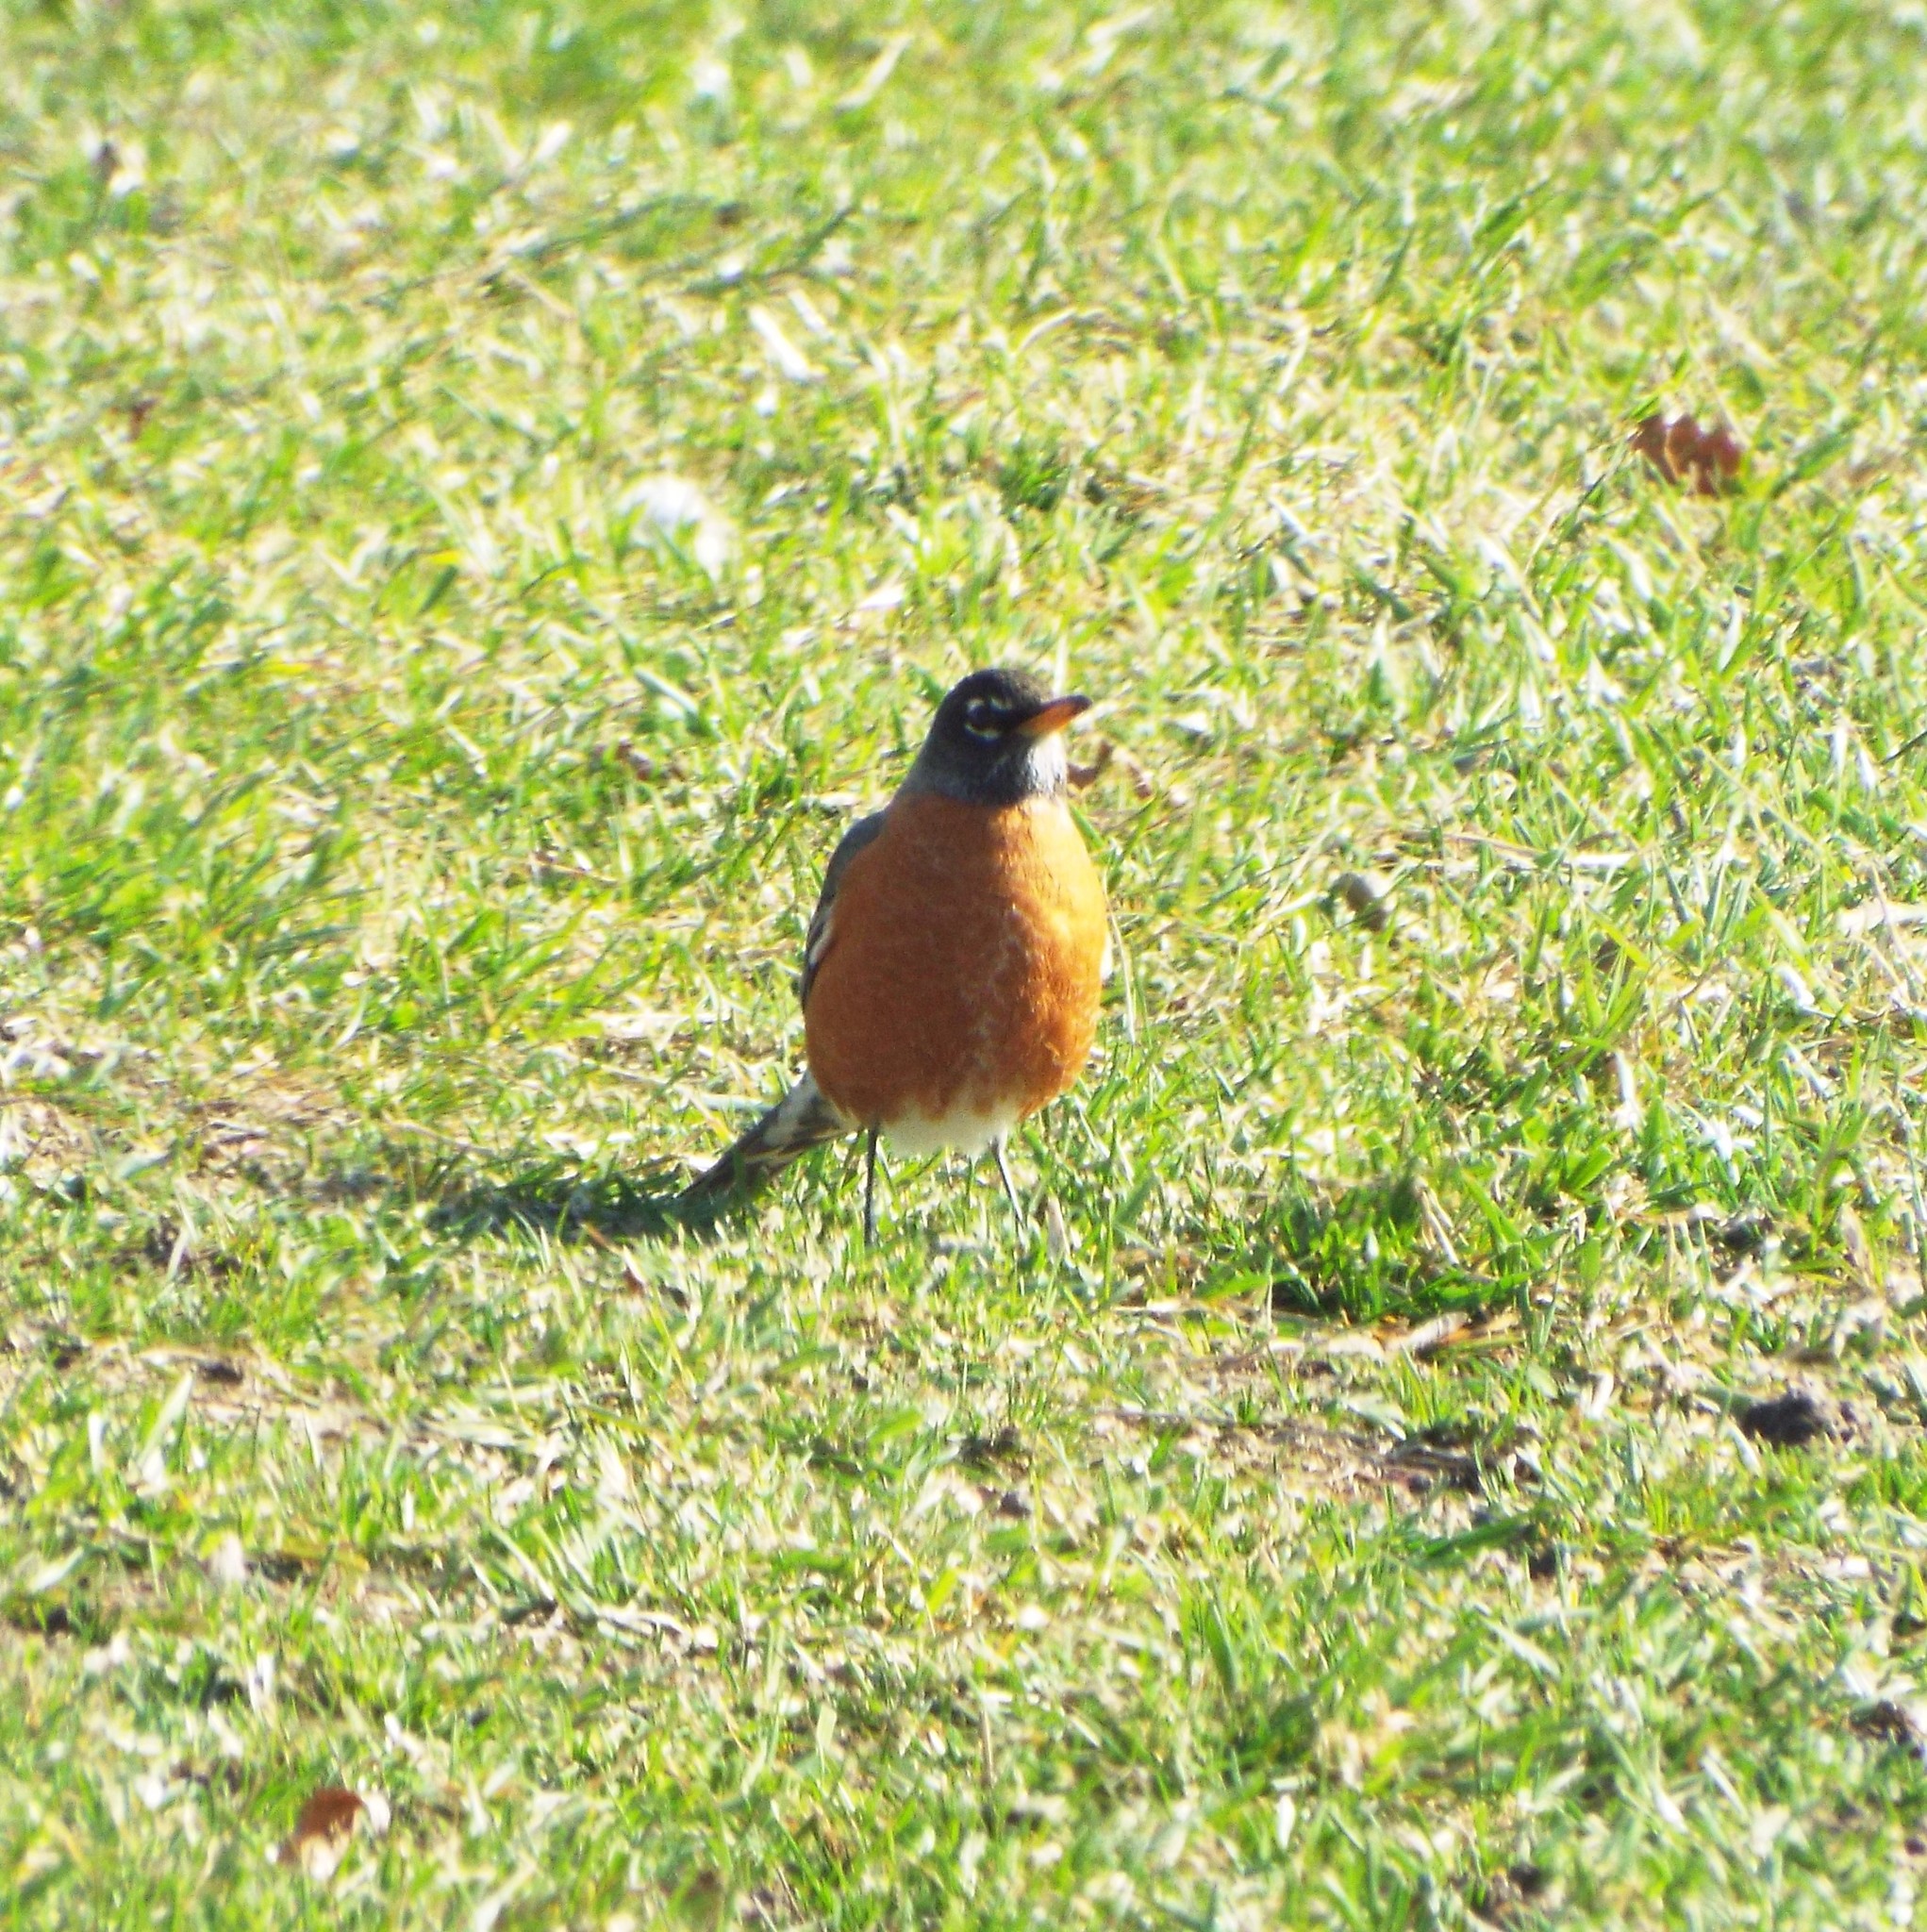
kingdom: Animalia
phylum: Chordata
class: Aves
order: Passeriformes
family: Turdidae
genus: Turdus
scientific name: Turdus migratorius
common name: American robin
